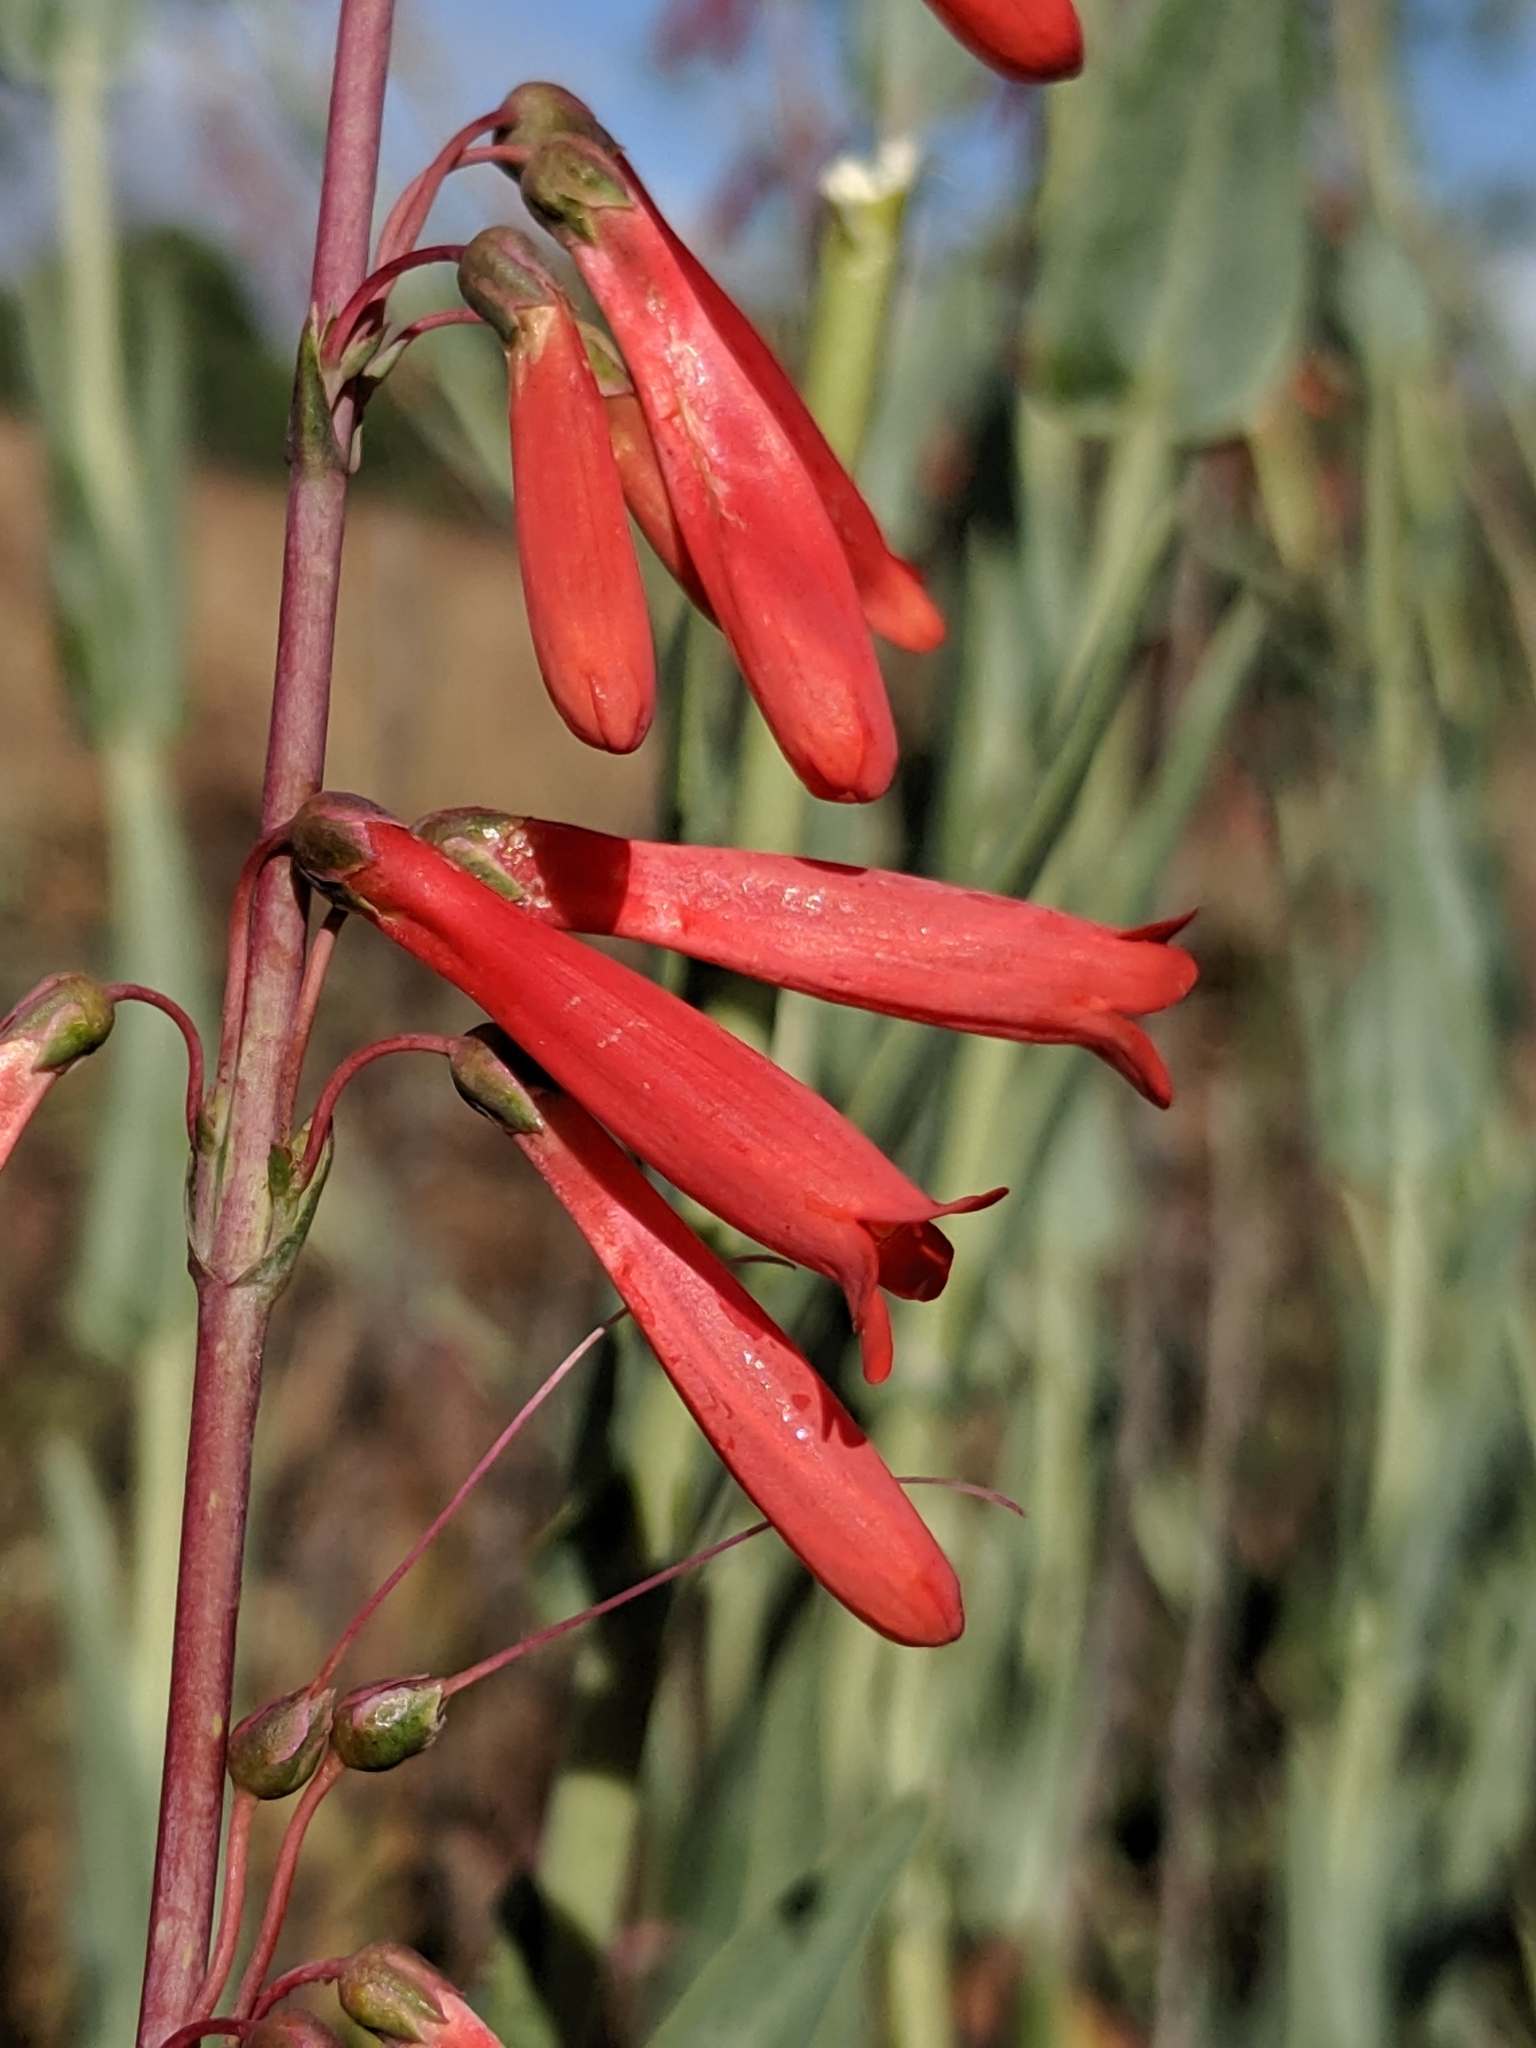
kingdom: Plantae
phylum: Tracheophyta
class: Magnoliopsida
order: Lamiales
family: Plantaginaceae
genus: Penstemon
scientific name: Penstemon centranthifolius
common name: Scarlet bugler
